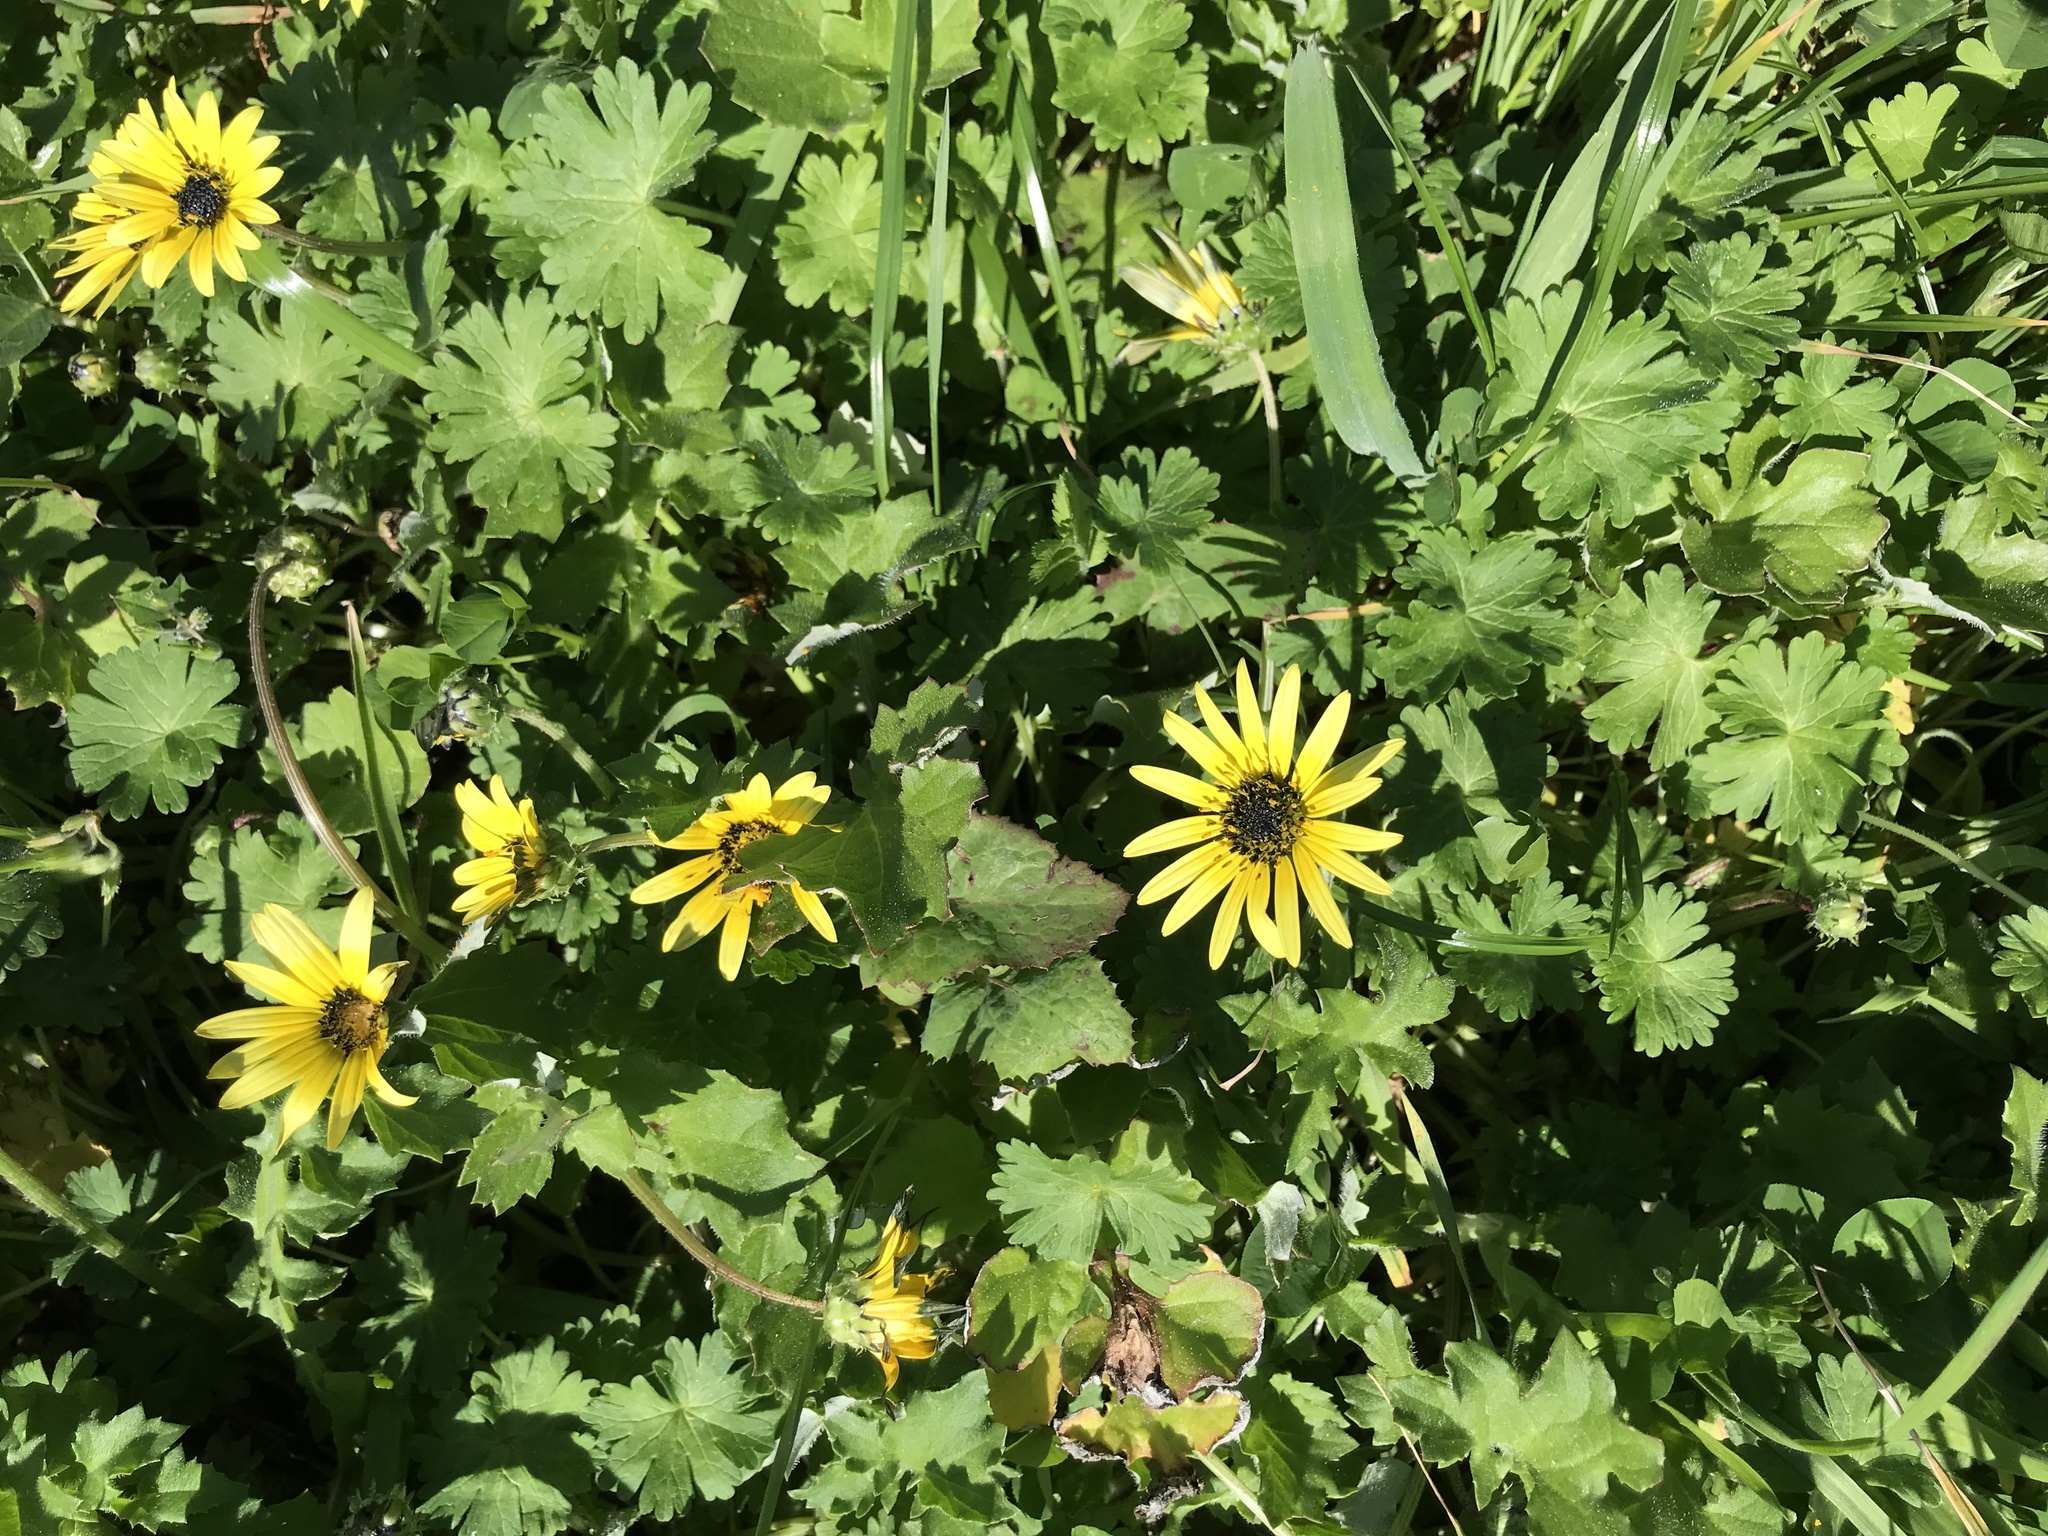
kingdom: Plantae
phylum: Tracheophyta
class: Magnoliopsida
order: Asterales
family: Asteraceae
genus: Arctotheca
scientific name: Arctotheca calendula
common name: Capeweed
